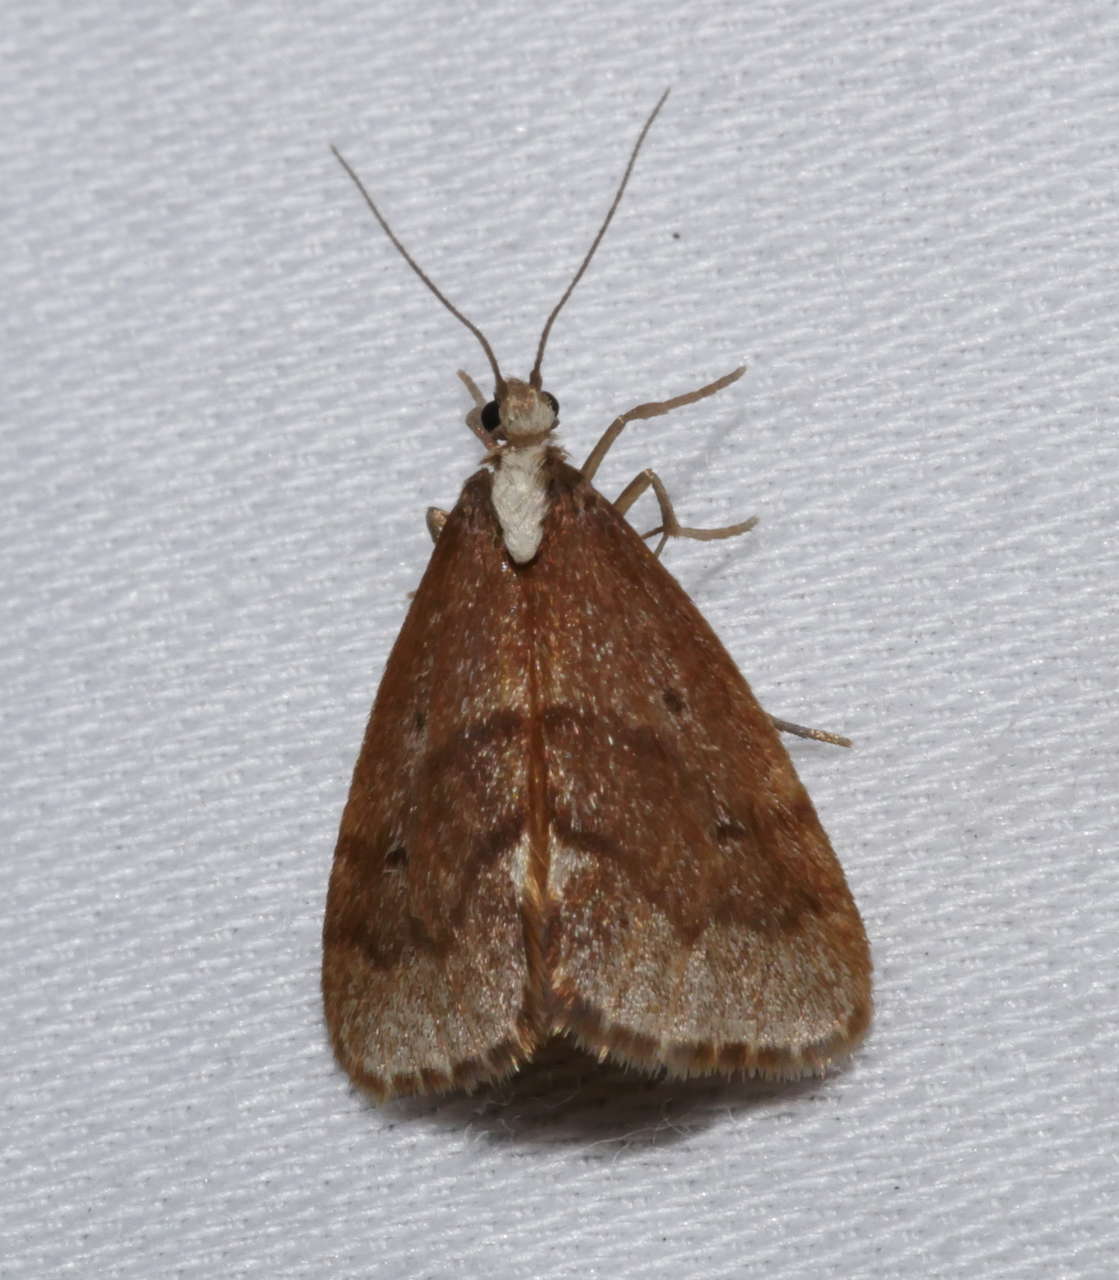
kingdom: Animalia
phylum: Arthropoda
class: Insecta
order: Lepidoptera
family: Erebidae
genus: Philenora
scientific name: Philenora omophanes
